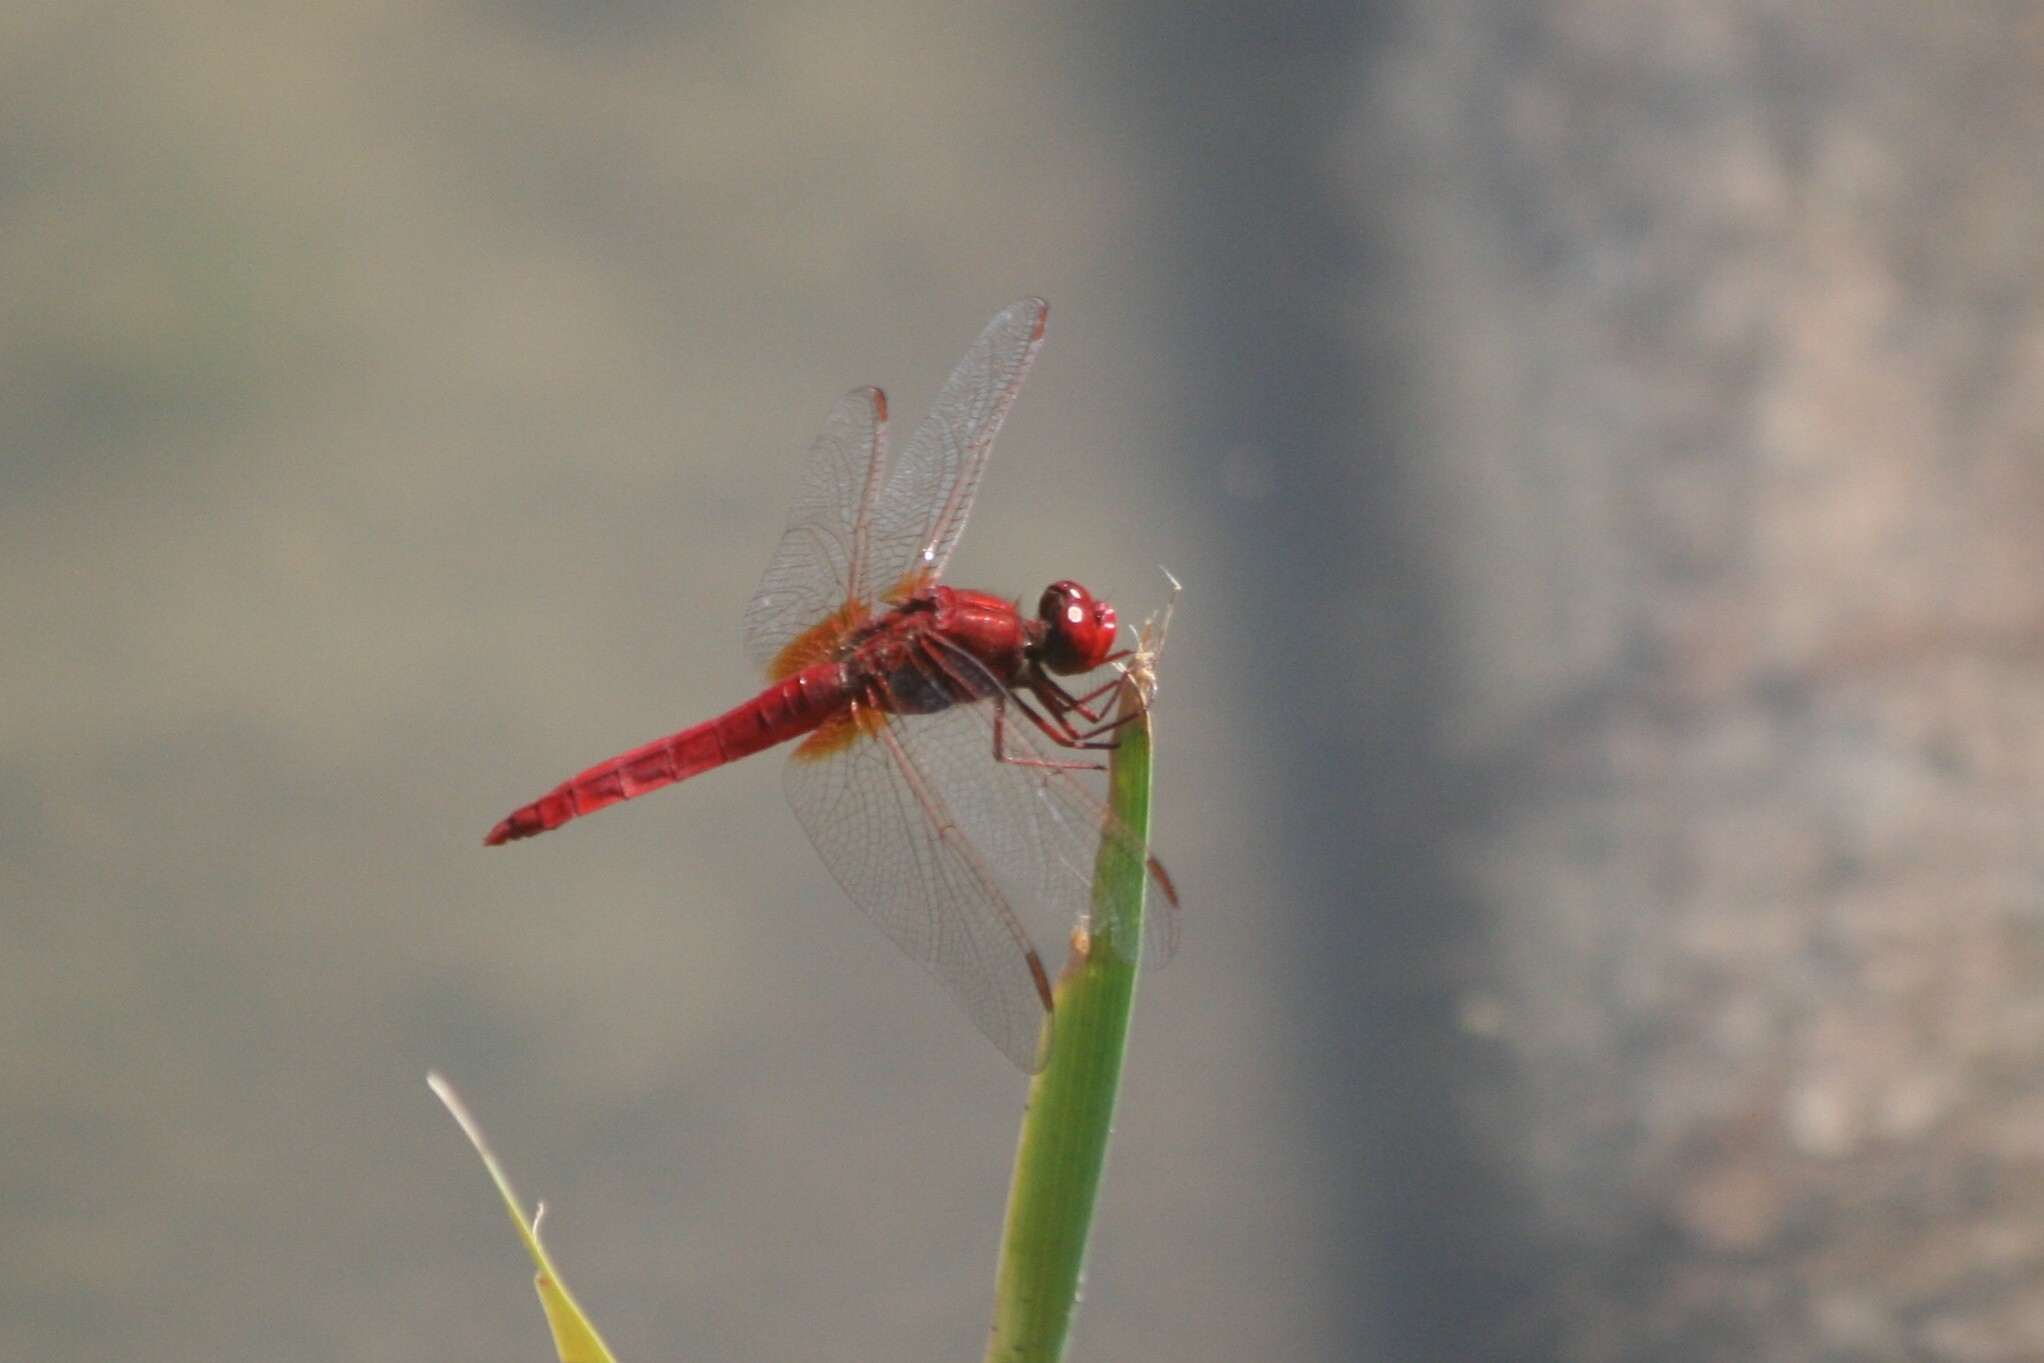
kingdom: Animalia
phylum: Arthropoda
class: Insecta
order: Odonata
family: Libellulidae
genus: Crocothemis
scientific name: Crocothemis erythraea
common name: Scarlet dragonfly
